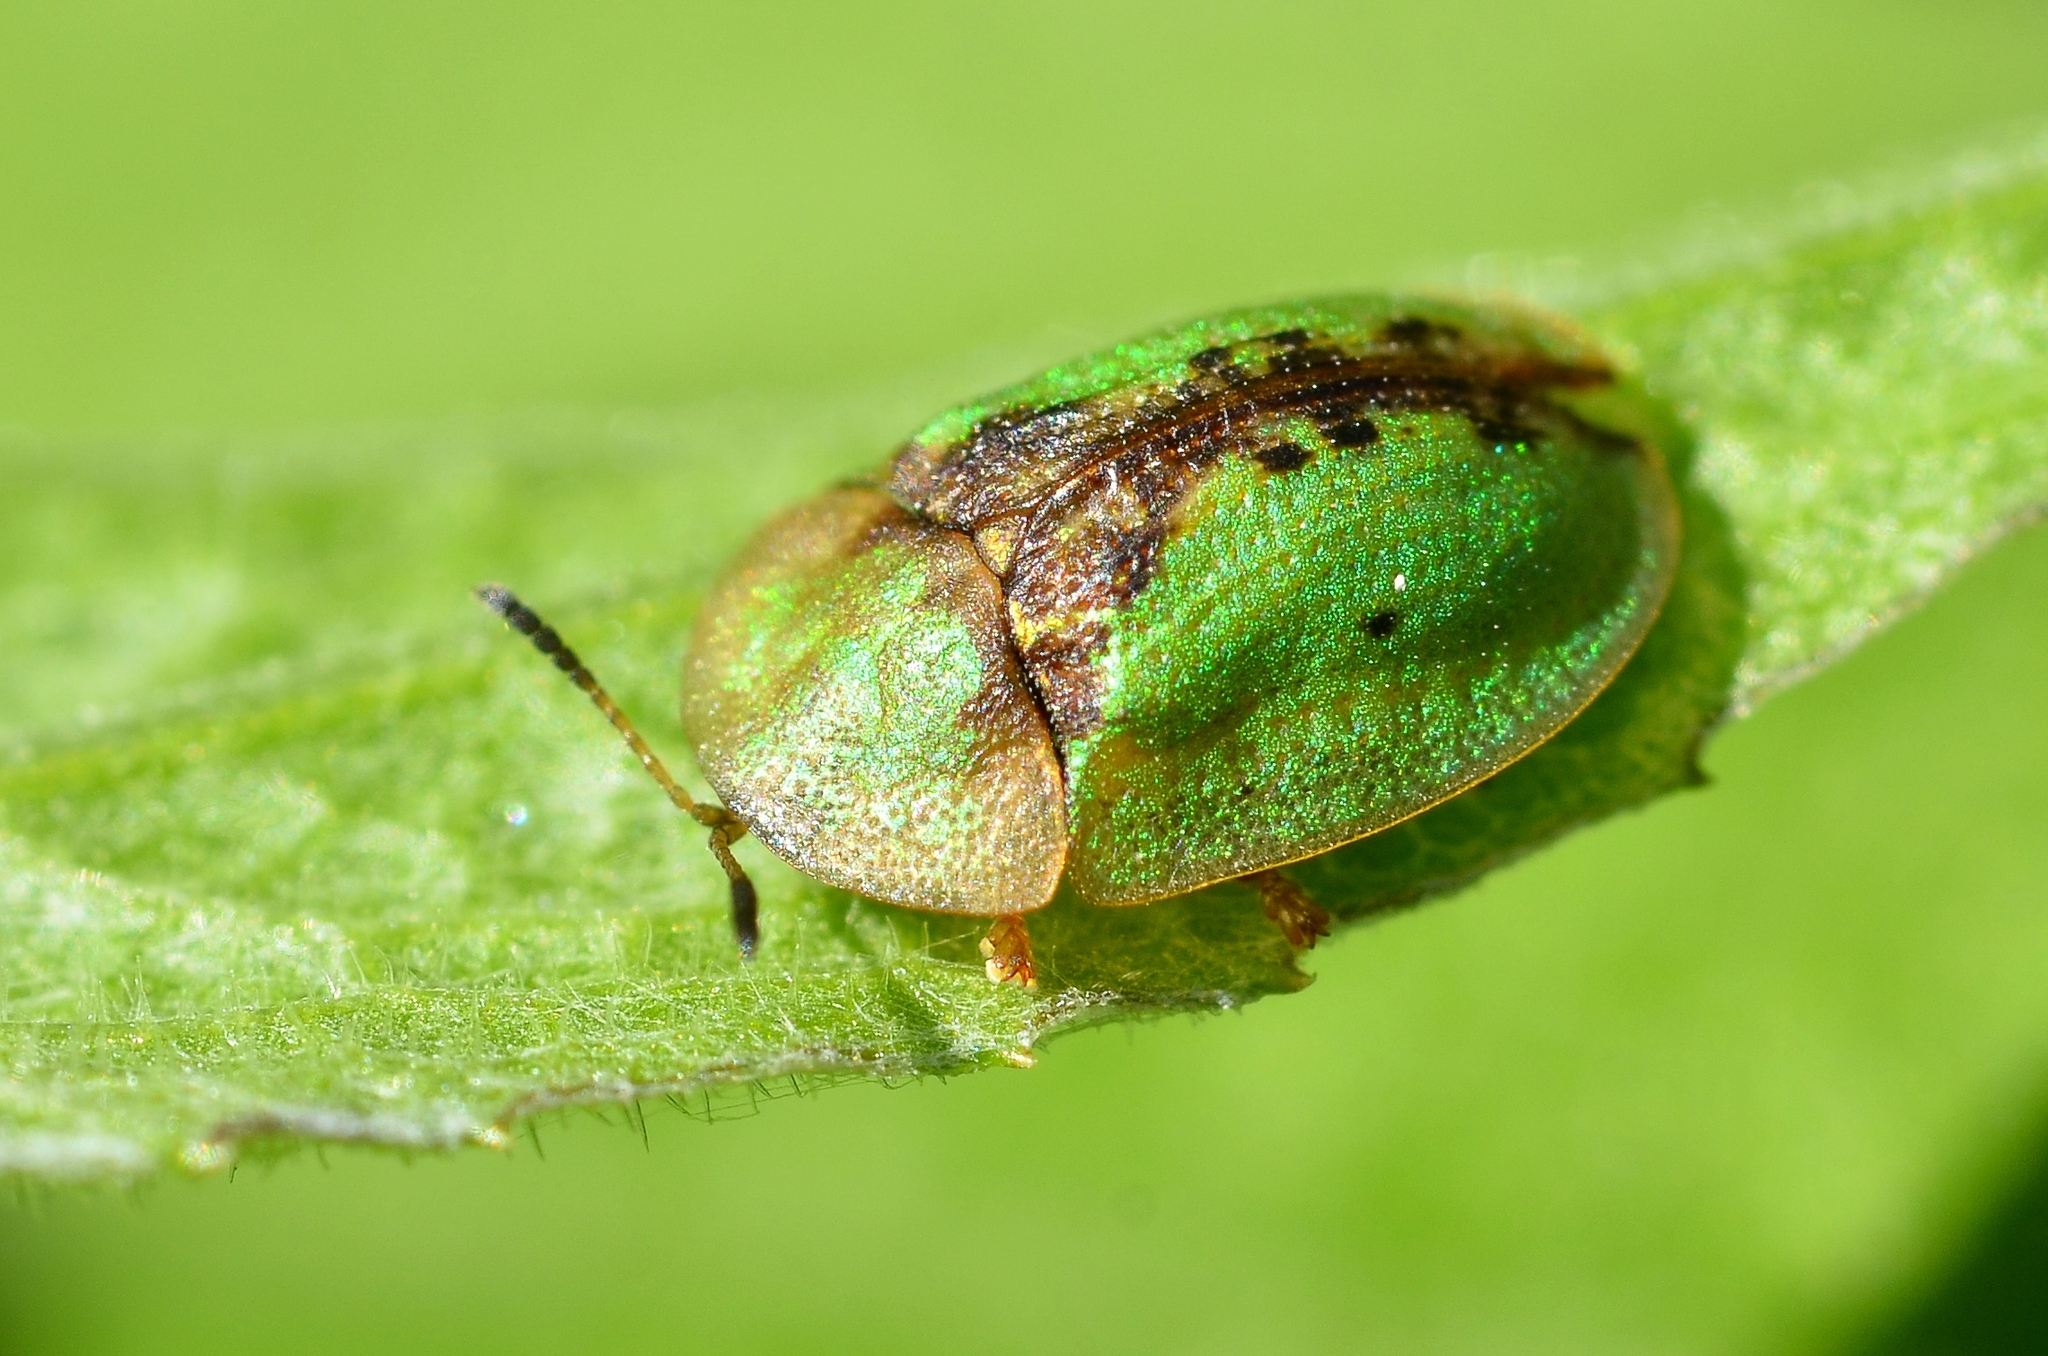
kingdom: Animalia
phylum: Arthropoda
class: Insecta
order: Coleoptera
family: Chrysomelidae
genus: Cassida
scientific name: Cassida vibex
